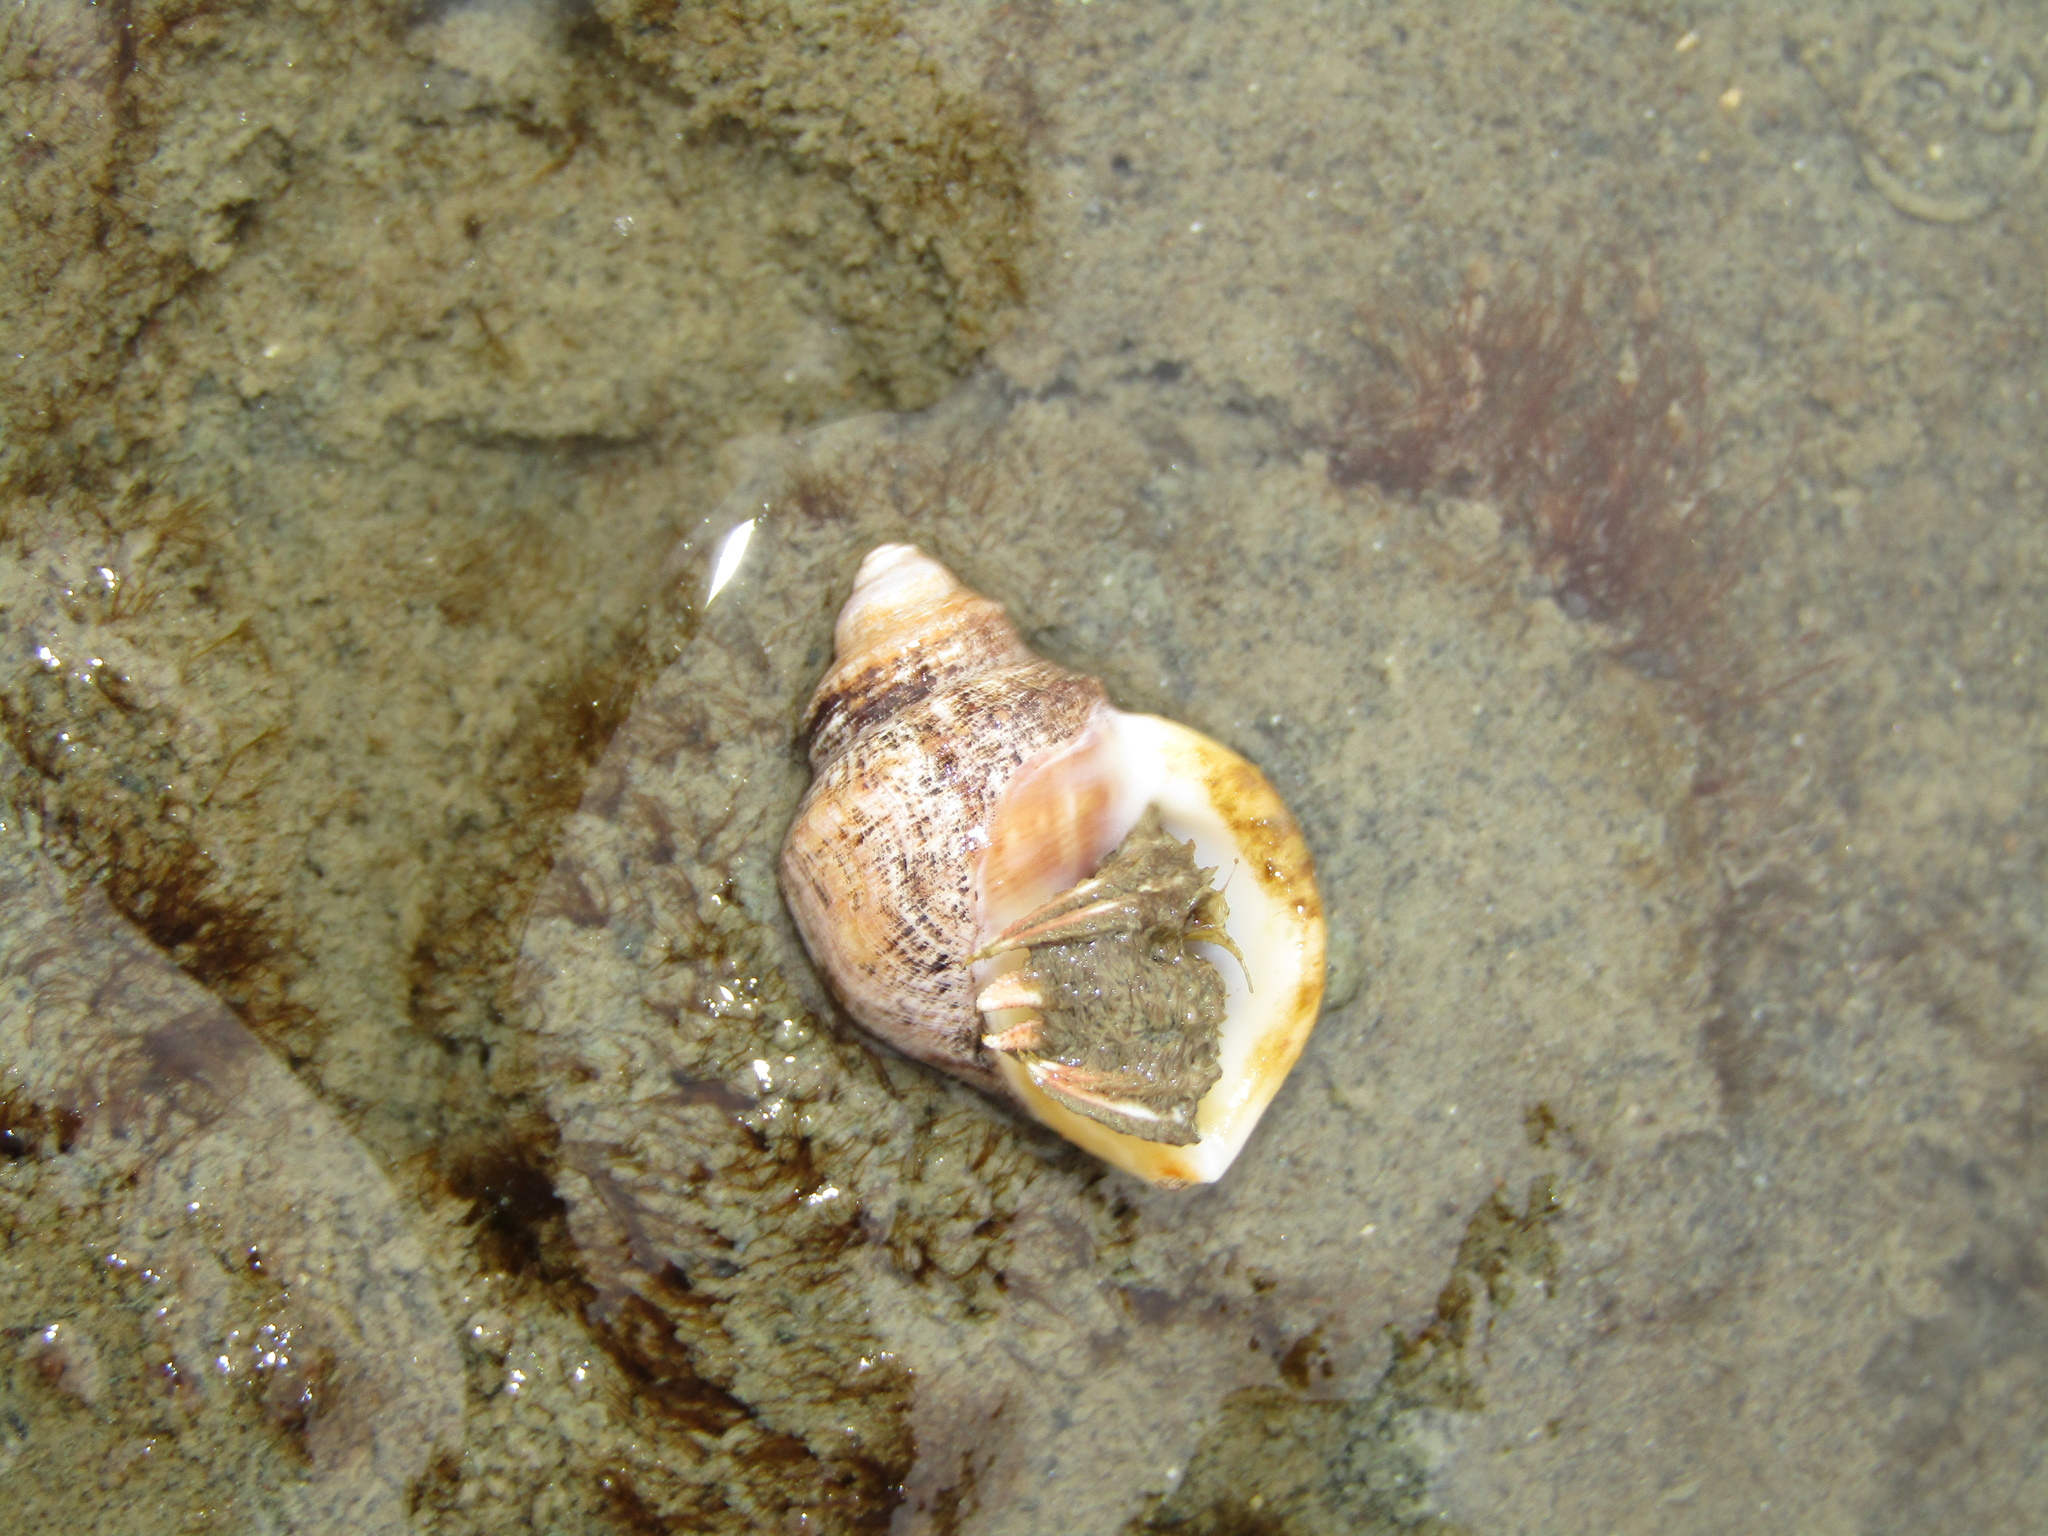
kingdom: Animalia
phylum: Mollusca
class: Gastropoda
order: Littorinimorpha
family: Struthiolariidae
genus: Pelicaria
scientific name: Pelicaria vermis
